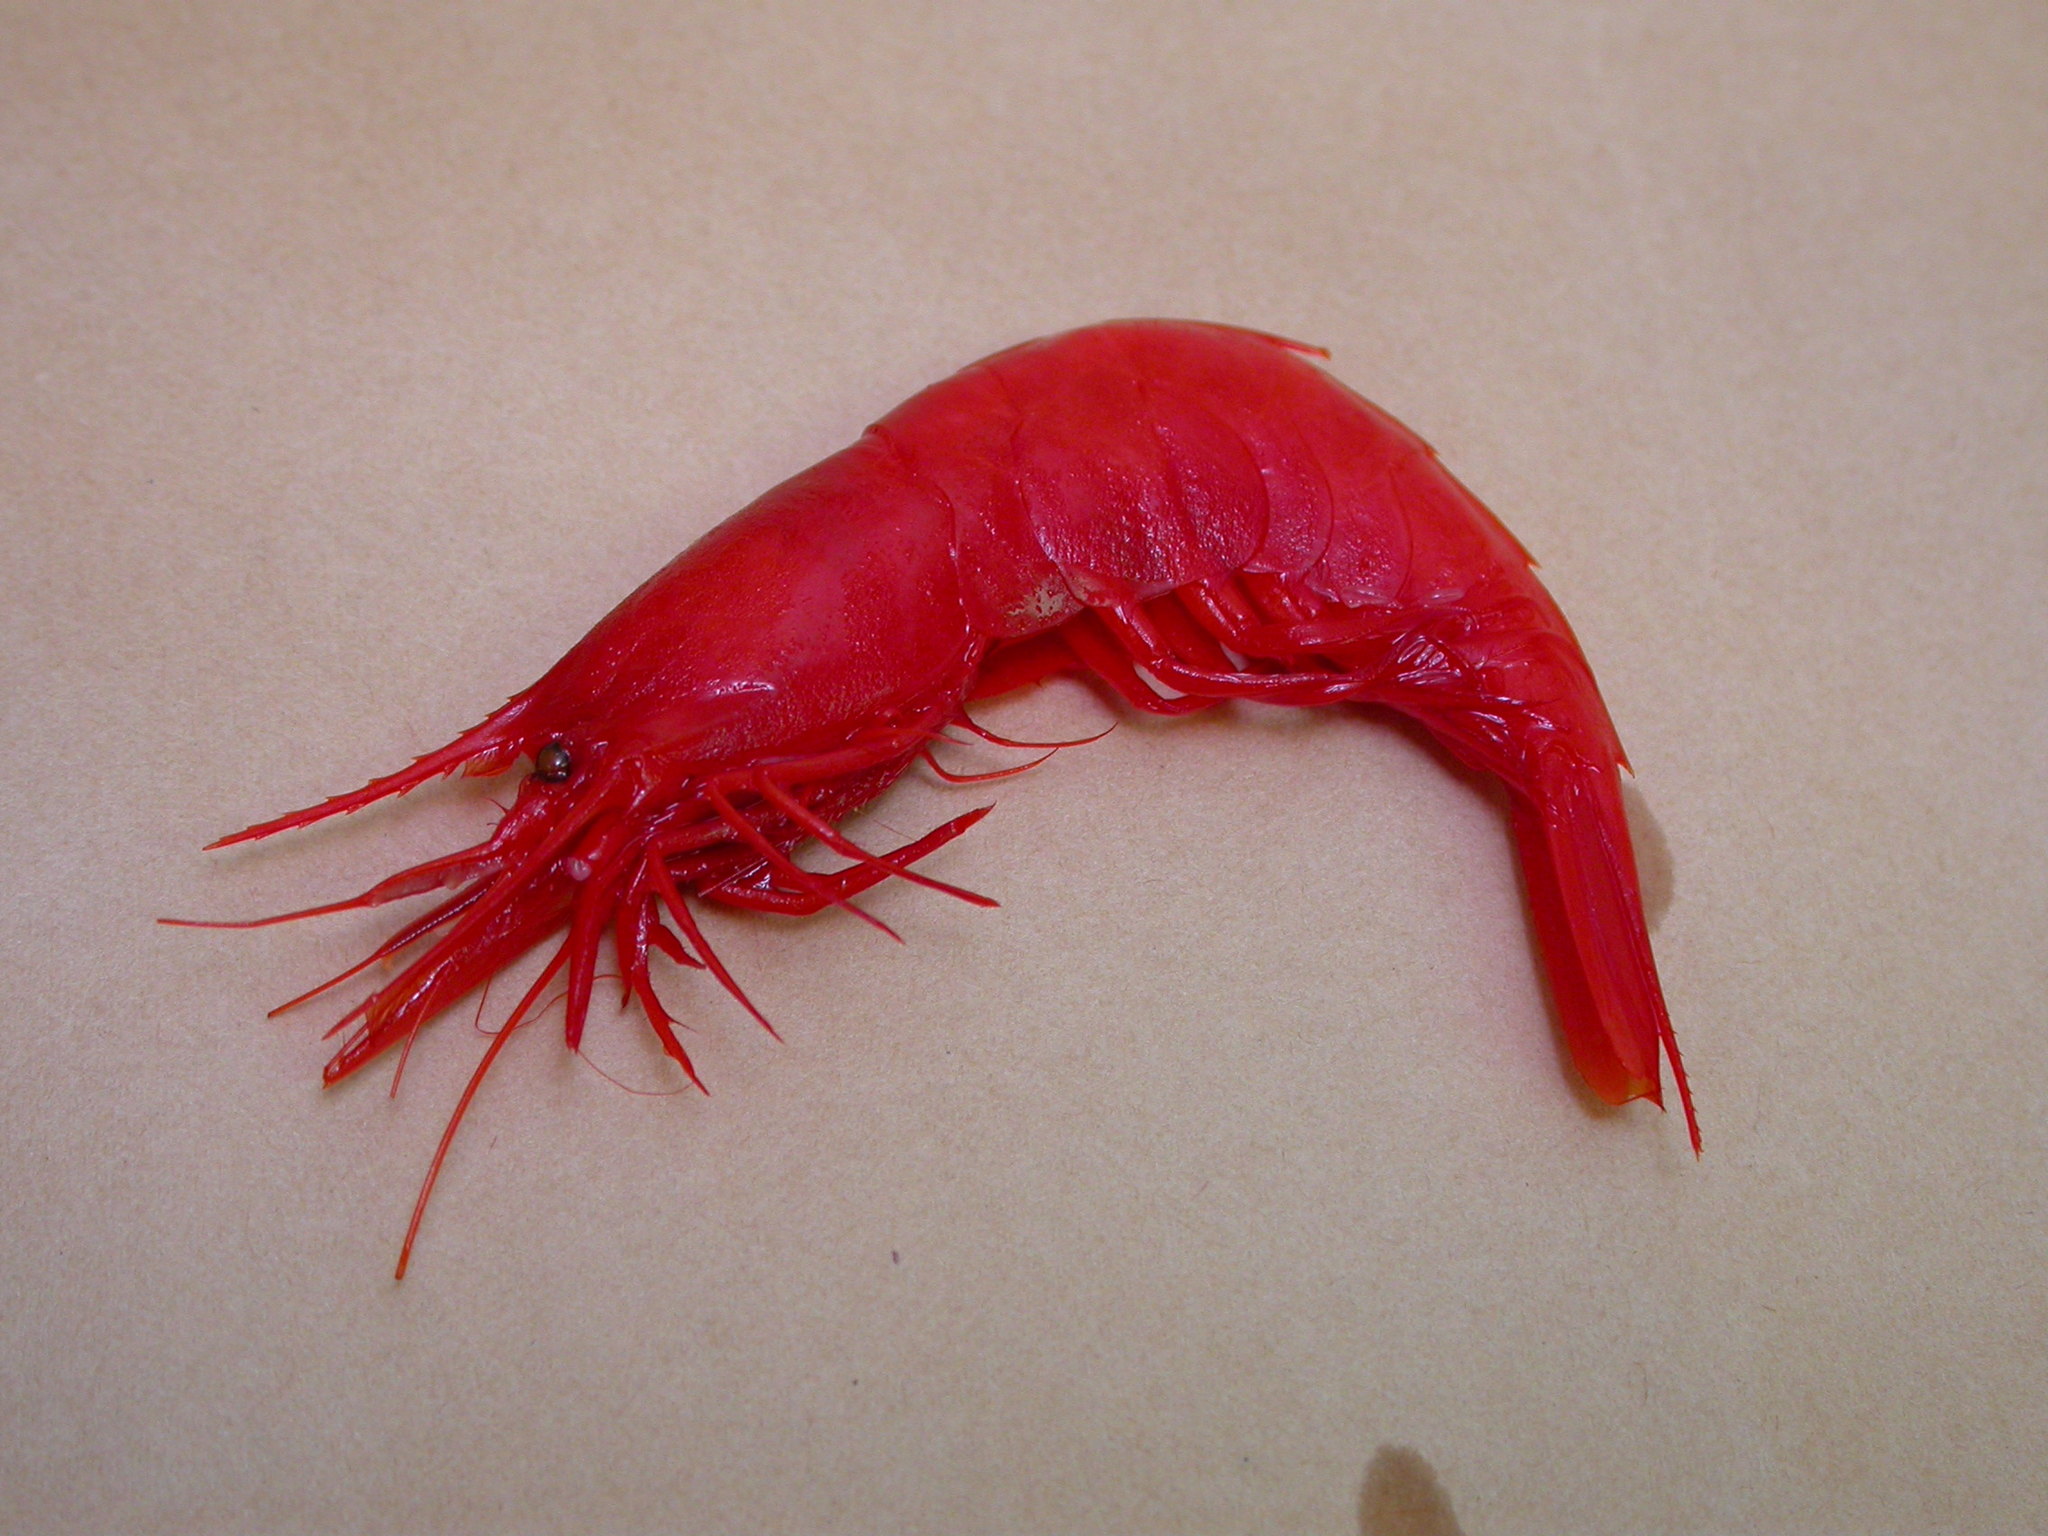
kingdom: Animalia
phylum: Arthropoda
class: Malacostraca
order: Decapoda
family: Acanthephyridae
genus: Acanthephyra
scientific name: Acanthephyra pelagica
